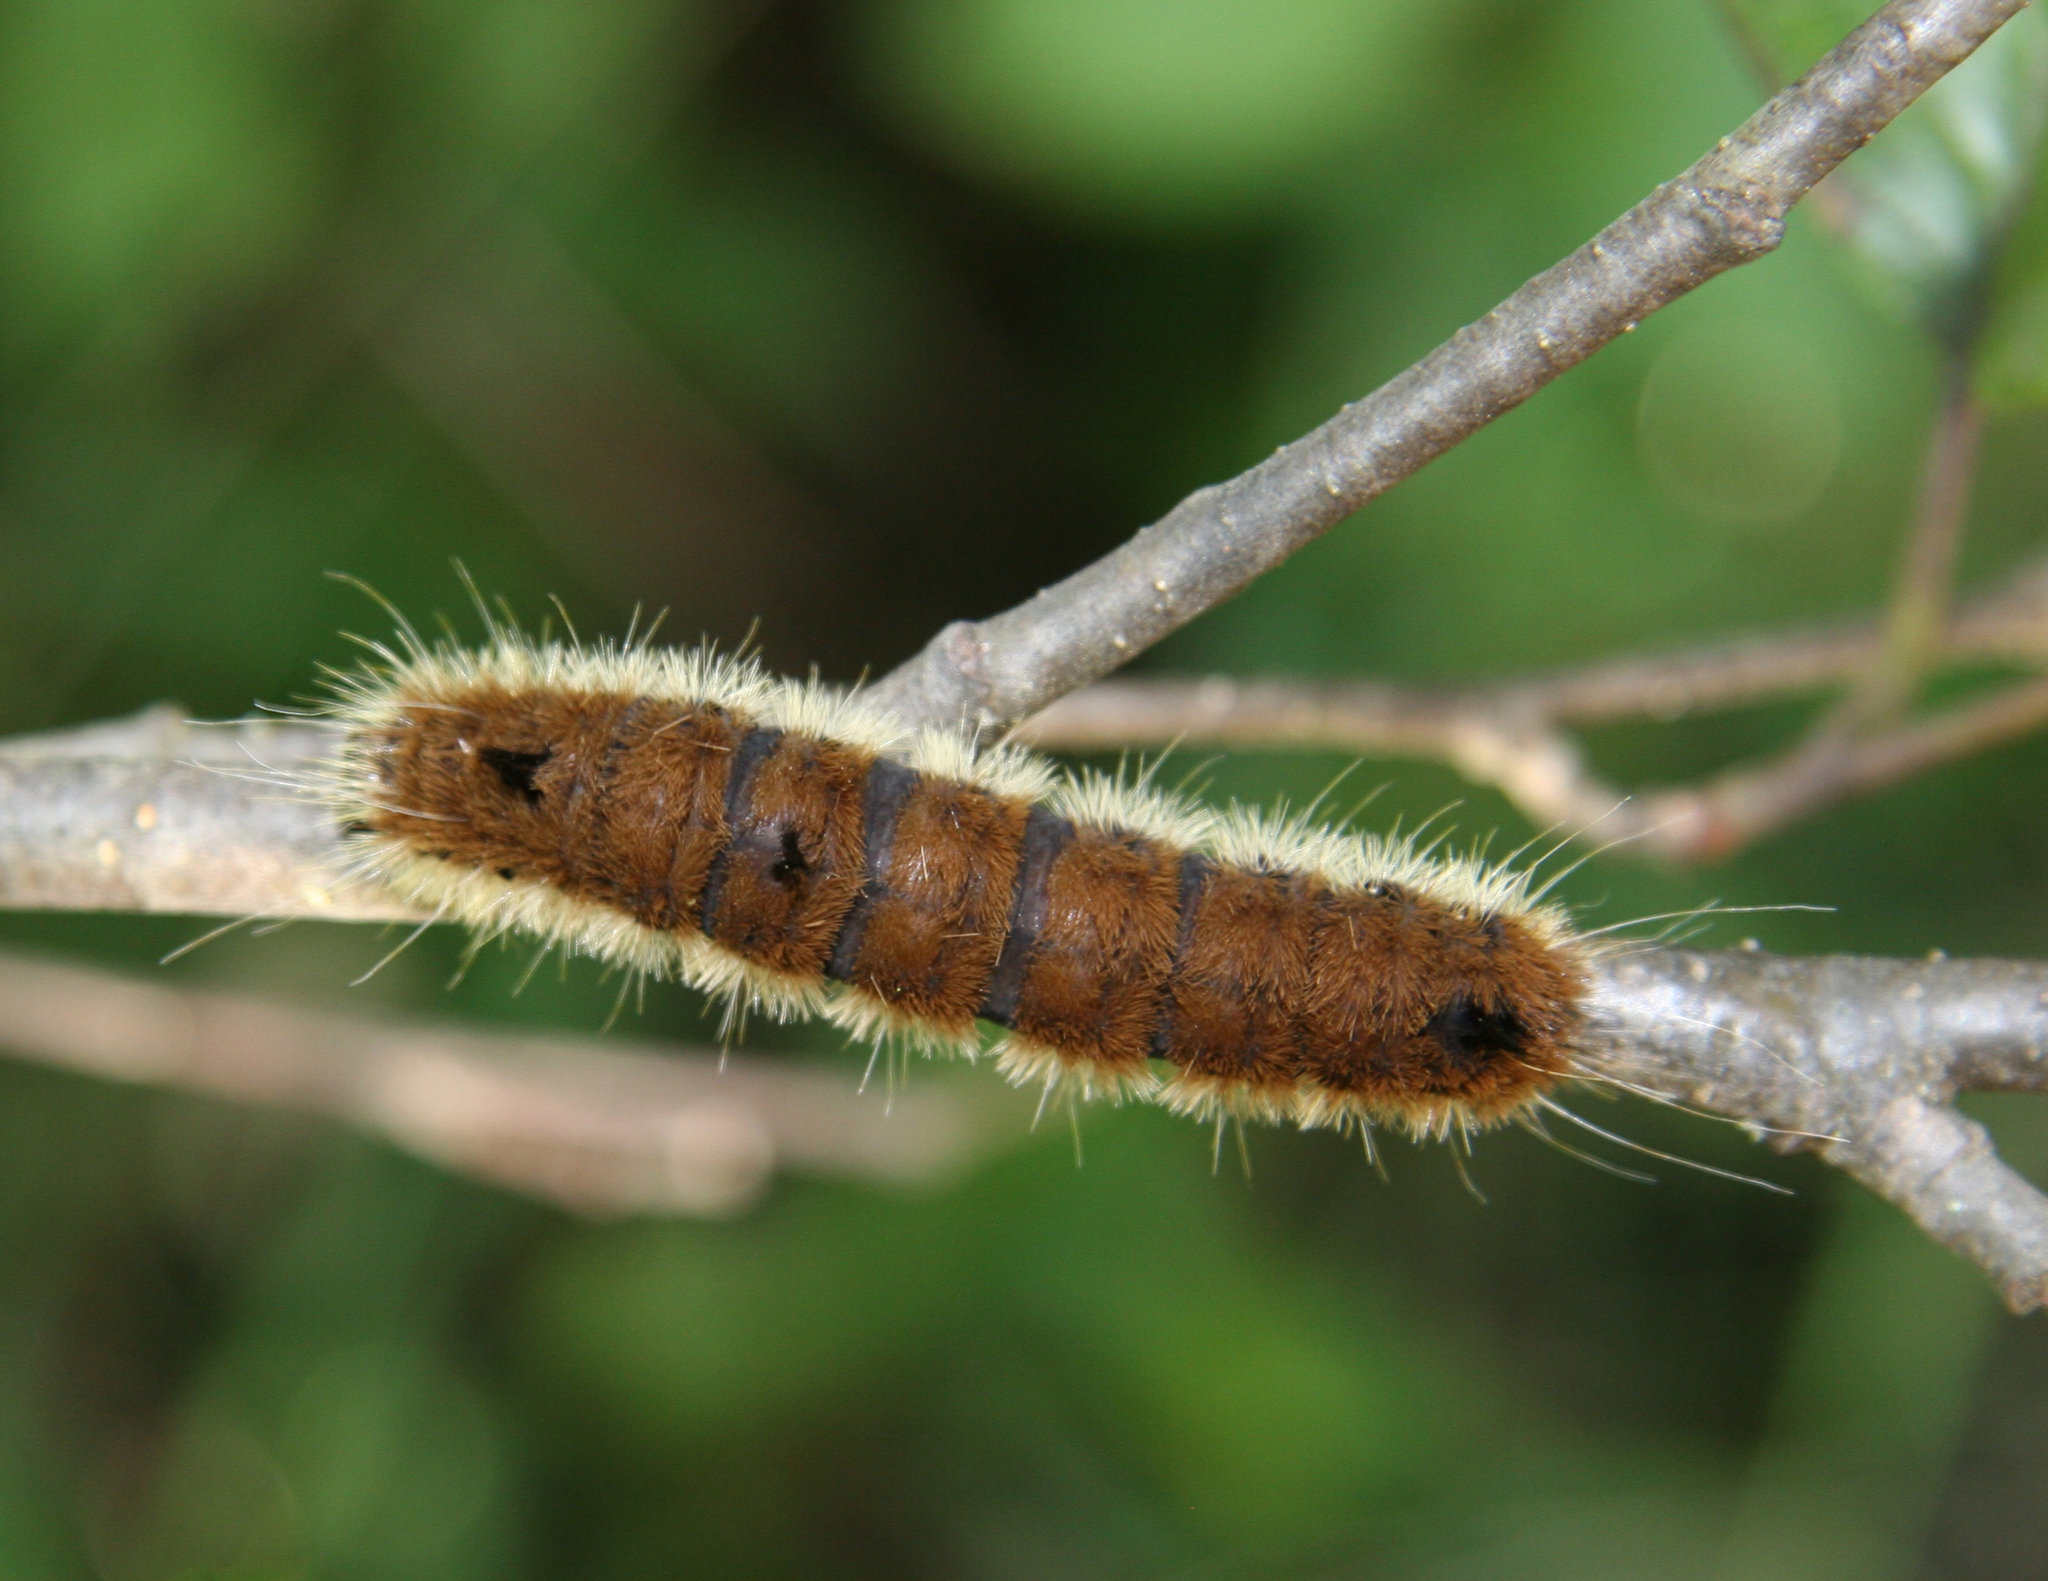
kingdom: Animalia
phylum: Arthropoda
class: Insecta
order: Lepidoptera
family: Noctuidae
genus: Acronicta
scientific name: Acronicta insita
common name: Large gray dagger
